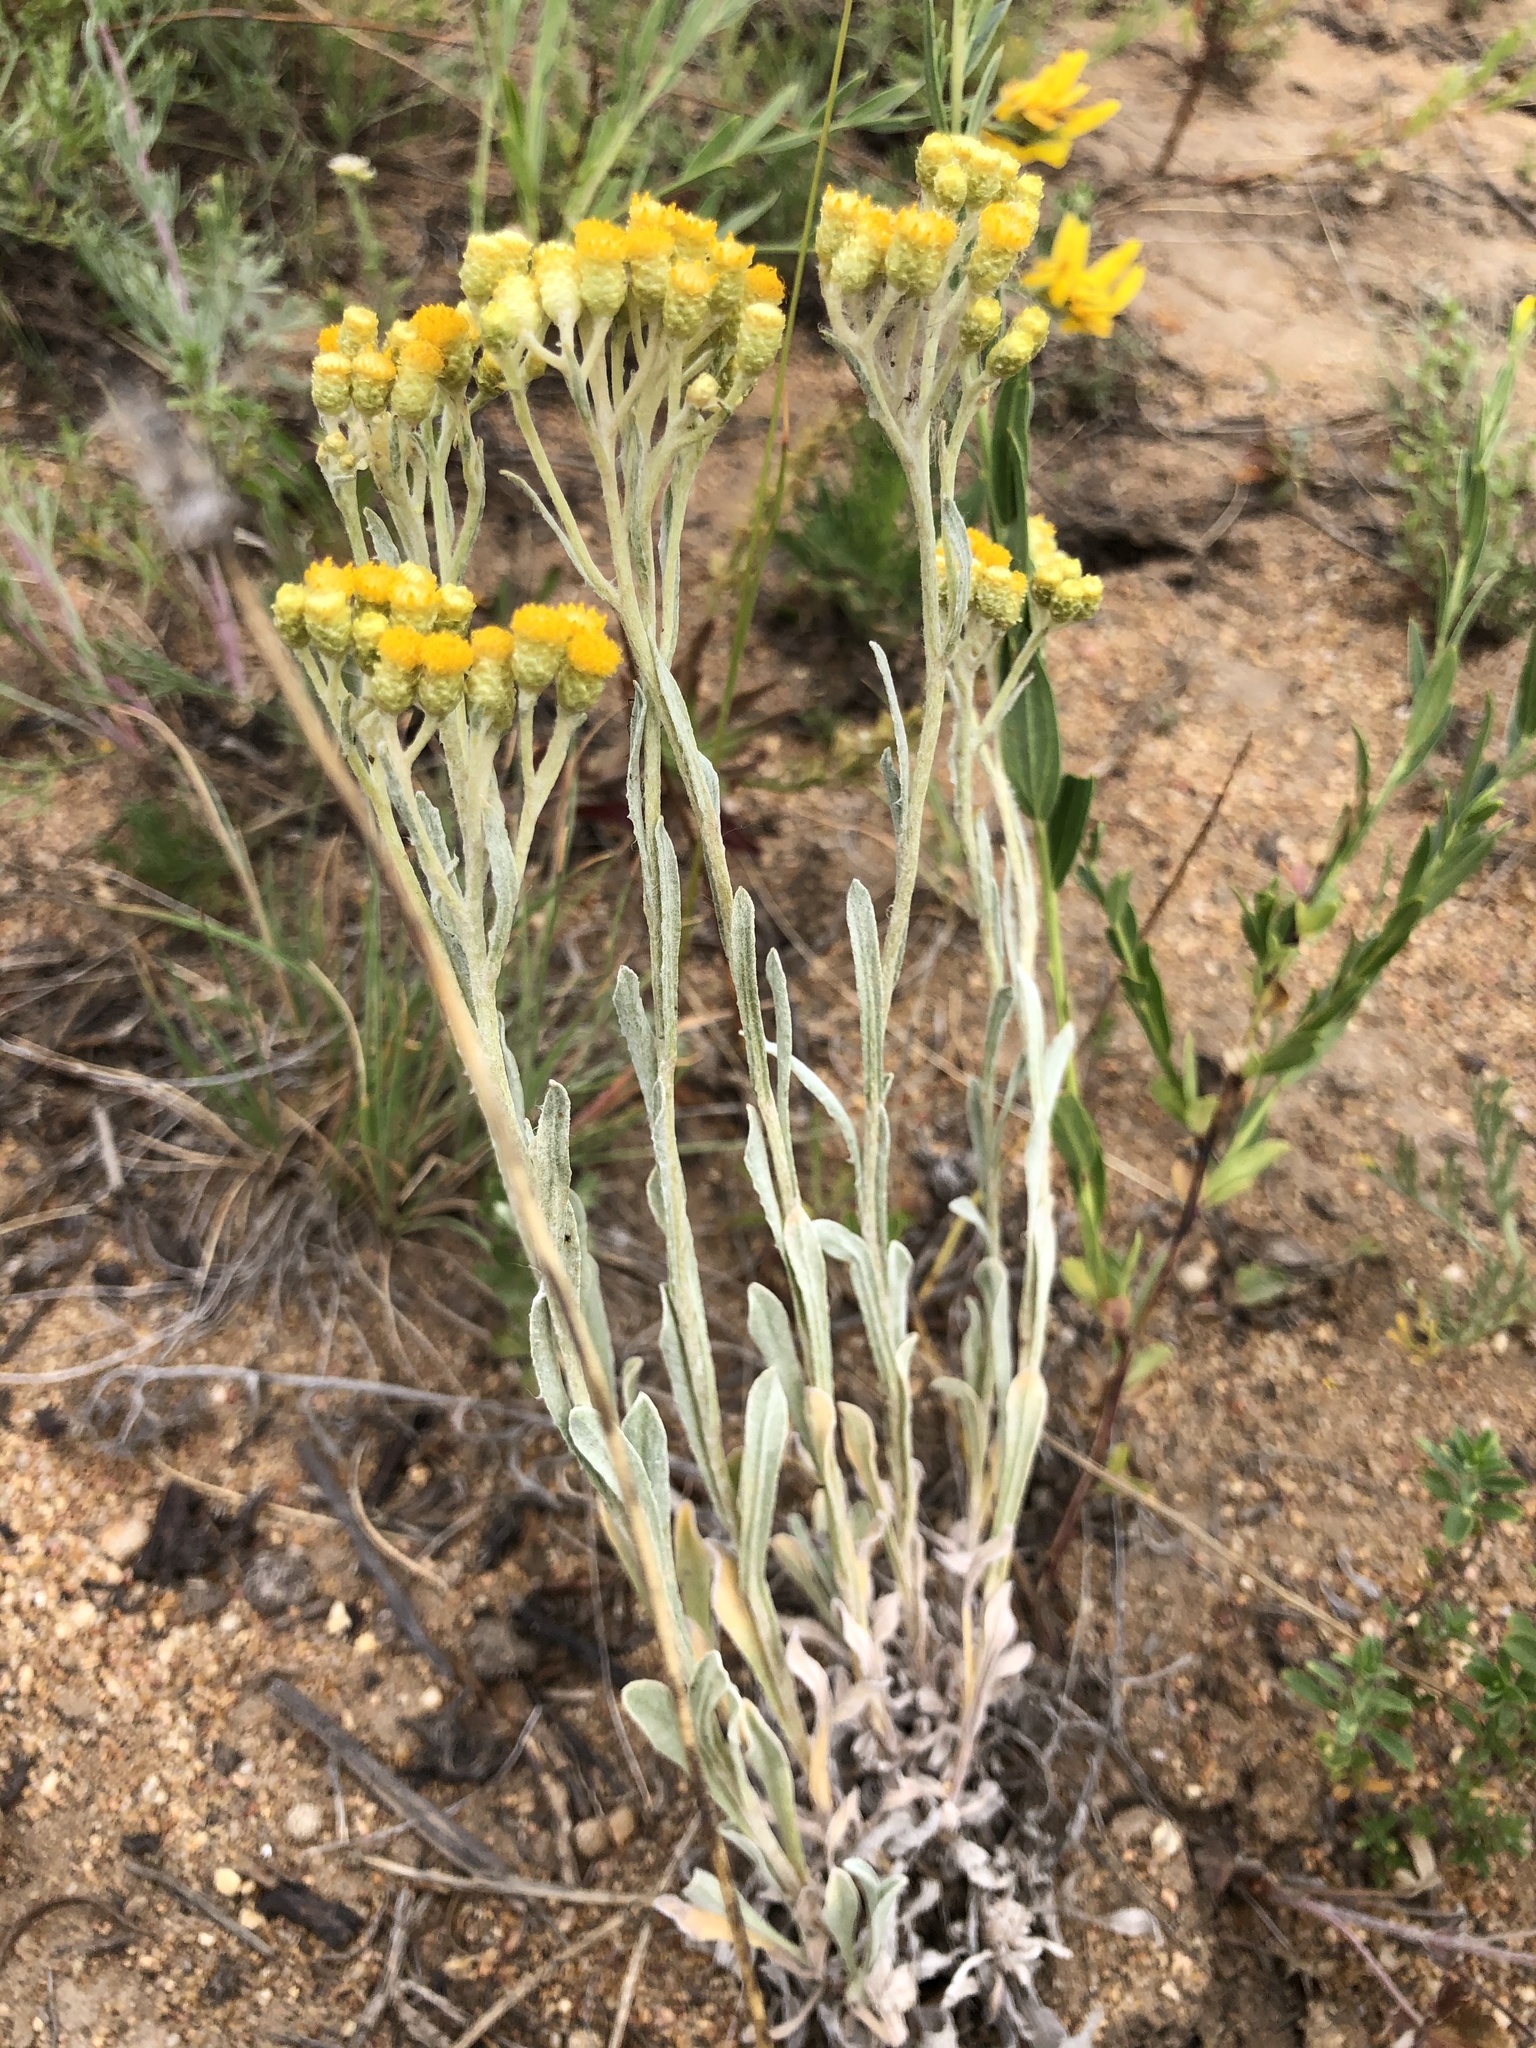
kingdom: Plantae
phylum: Tracheophyta
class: Magnoliopsida
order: Asterales
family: Asteraceae
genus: Helichrysum
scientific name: Helichrysum arenarium
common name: Strawflower
